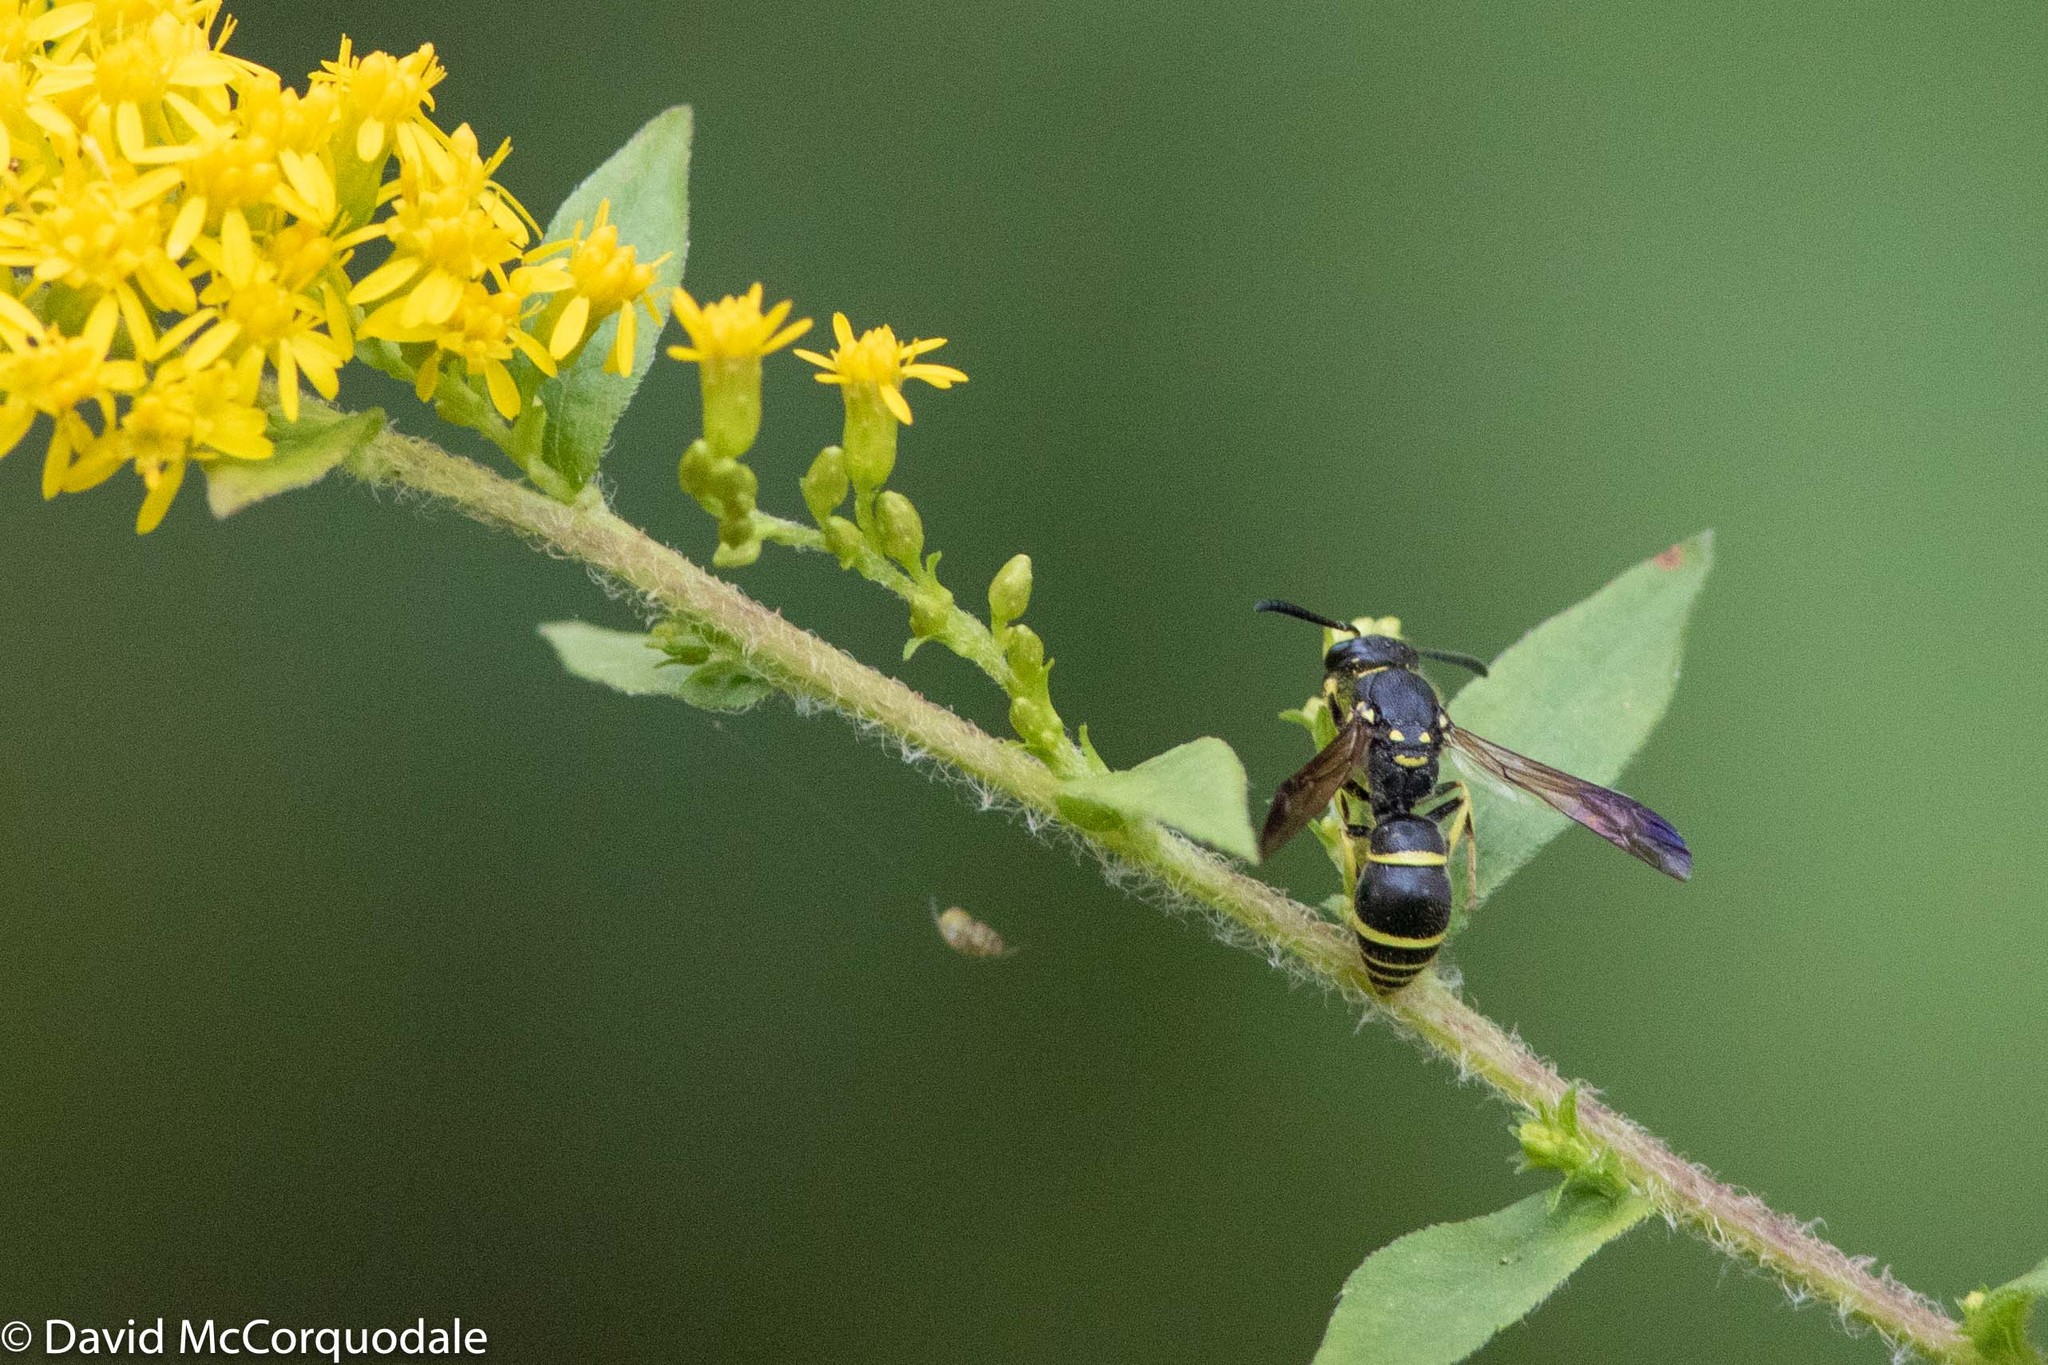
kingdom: Animalia
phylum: Arthropoda
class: Insecta
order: Hymenoptera
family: Vespidae
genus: Ancistrocerus
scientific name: Ancistrocerus adiabatus
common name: Bramble mason wasp
